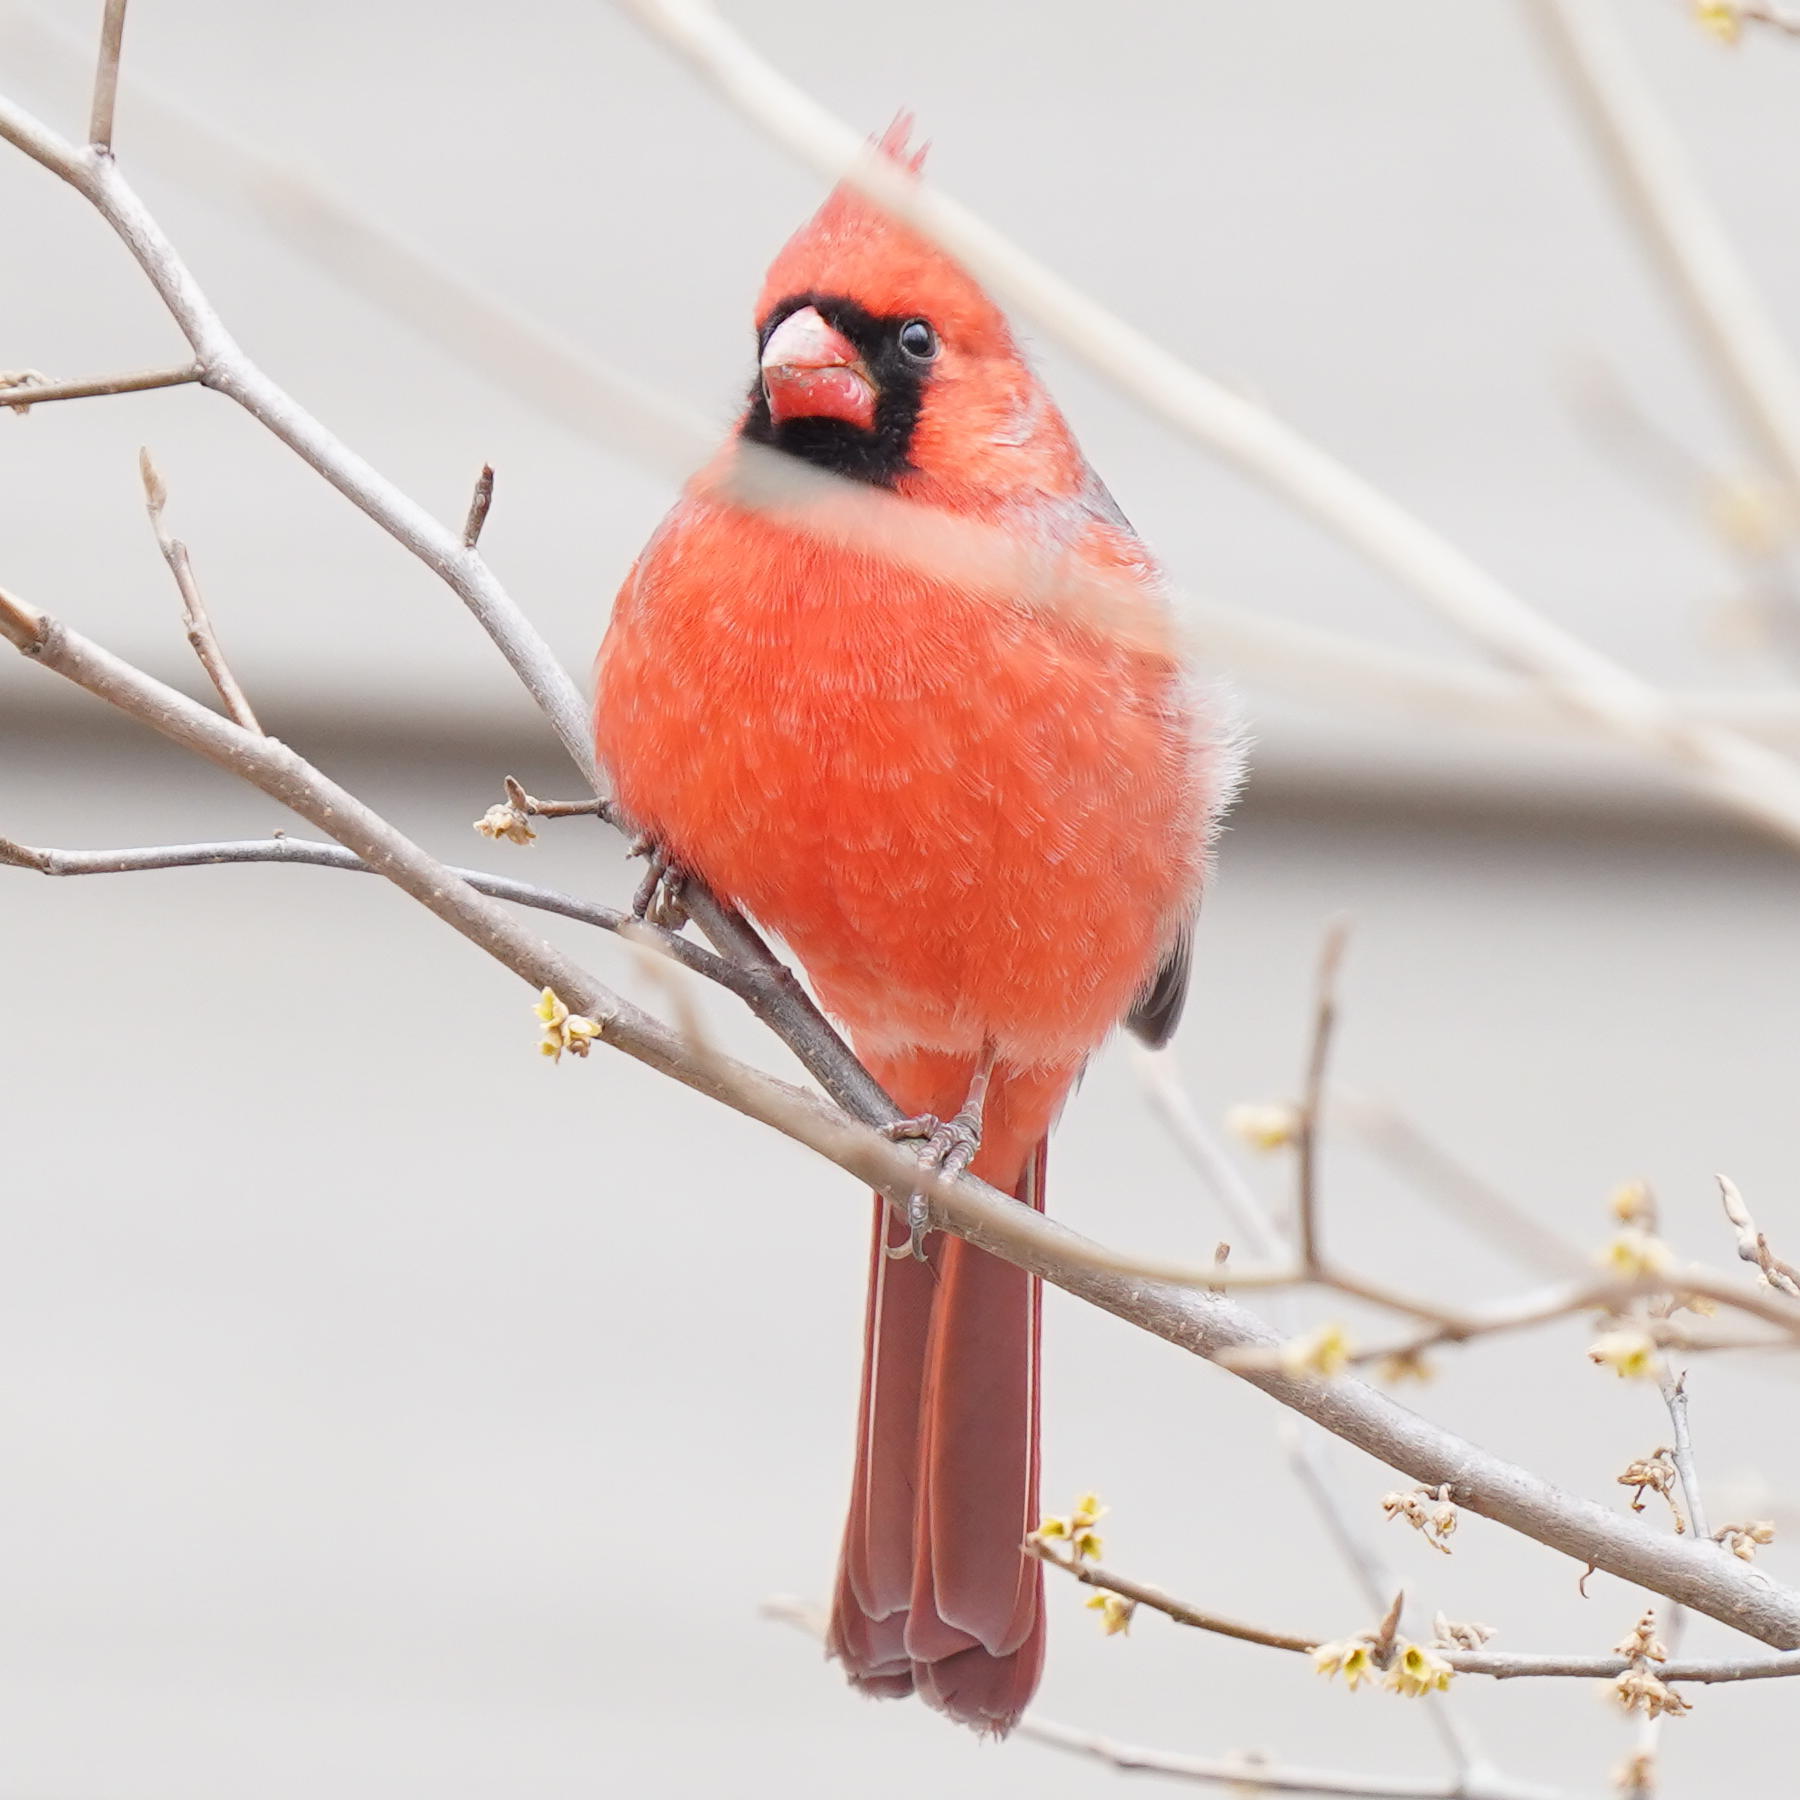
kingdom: Animalia
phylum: Chordata
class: Aves
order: Passeriformes
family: Cardinalidae
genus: Cardinalis
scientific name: Cardinalis cardinalis
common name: Northern cardinal
